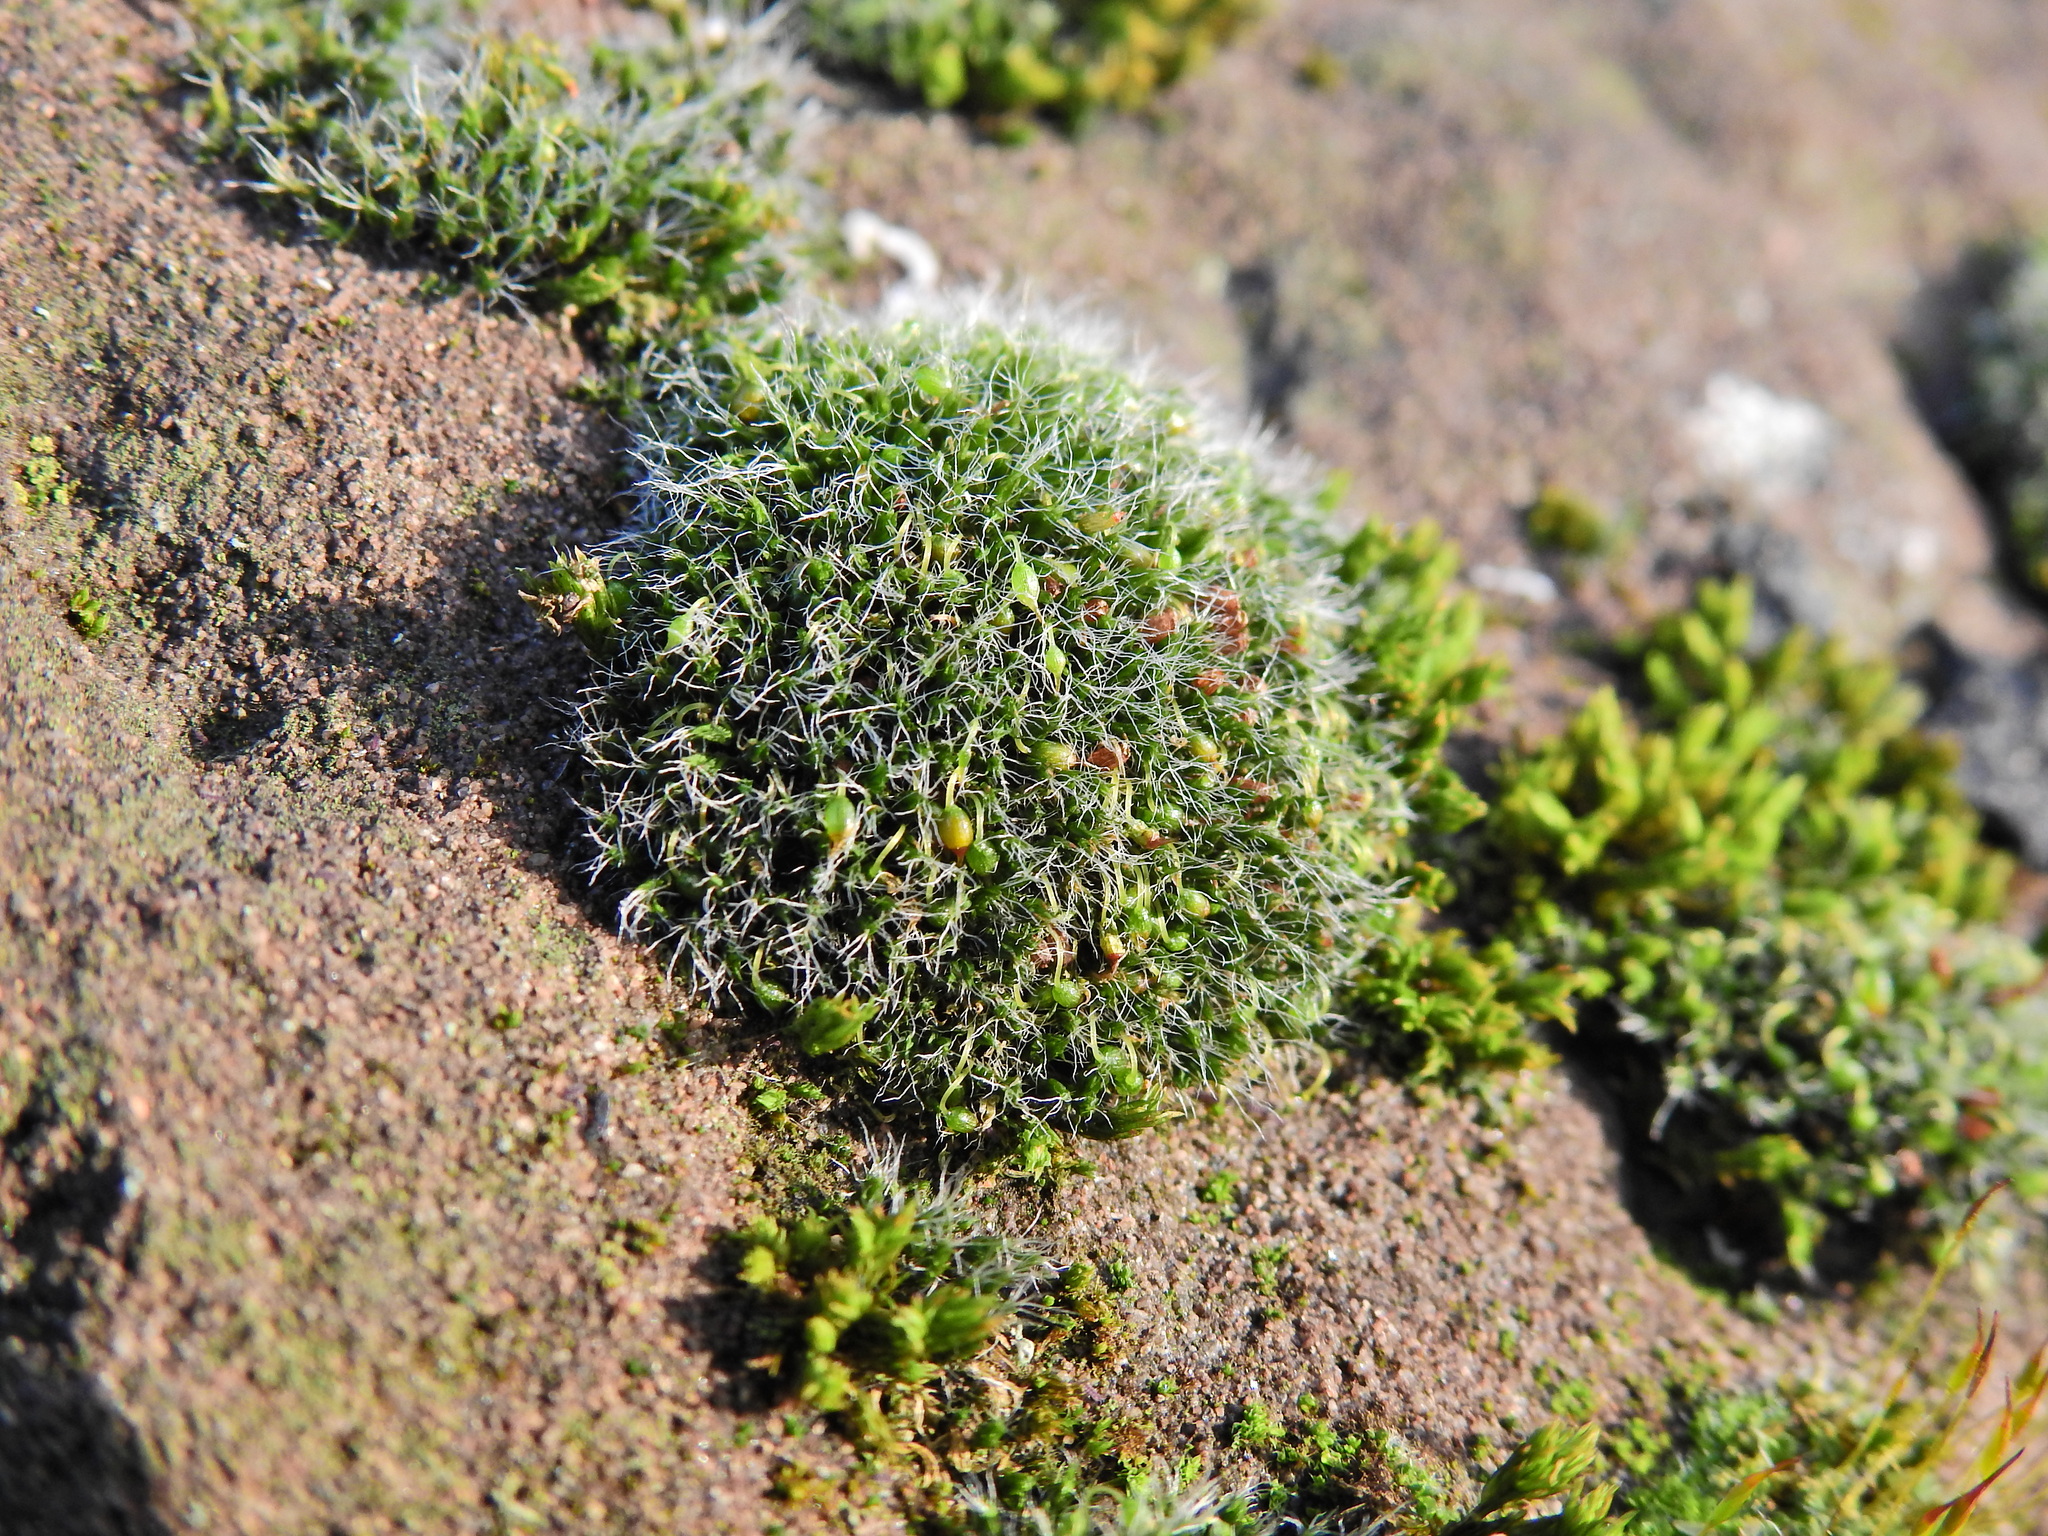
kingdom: Plantae
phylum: Bryophyta
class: Bryopsida
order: Grimmiales
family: Grimmiaceae
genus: Grimmia
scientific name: Grimmia pulvinata
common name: Grey-cushioned grimmia
